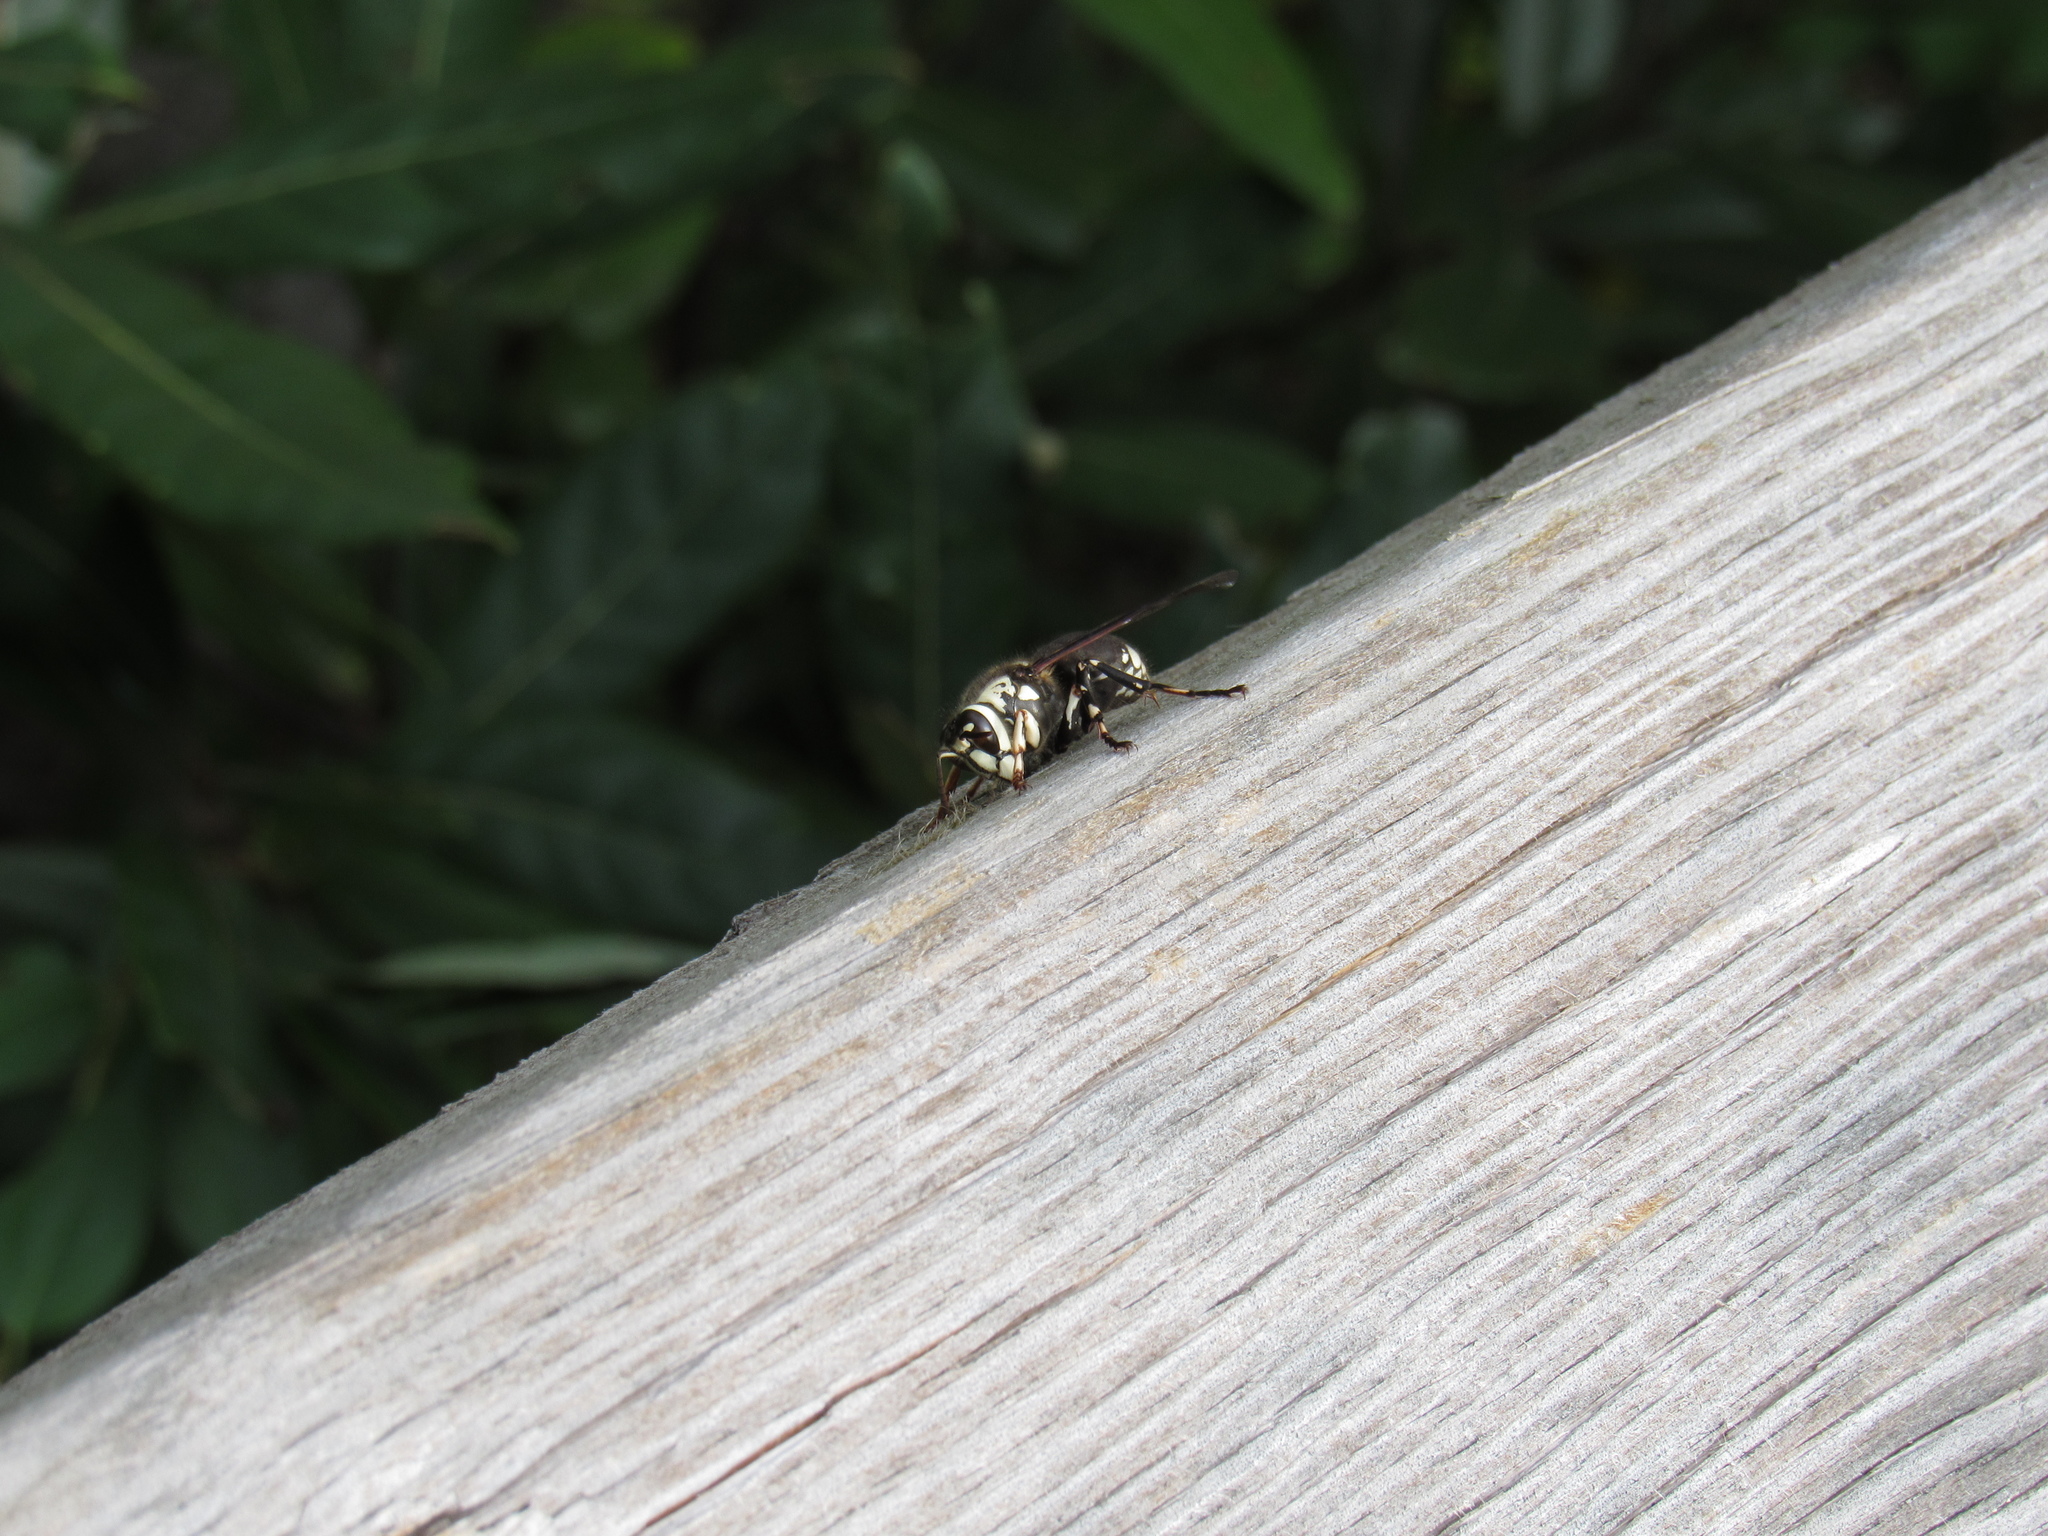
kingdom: Animalia
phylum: Arthropoda
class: Insecta
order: Hymenoptera
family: Vespidae
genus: Dolichovespula
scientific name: Dolichovespula maculata
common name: Bald-faced hornet
